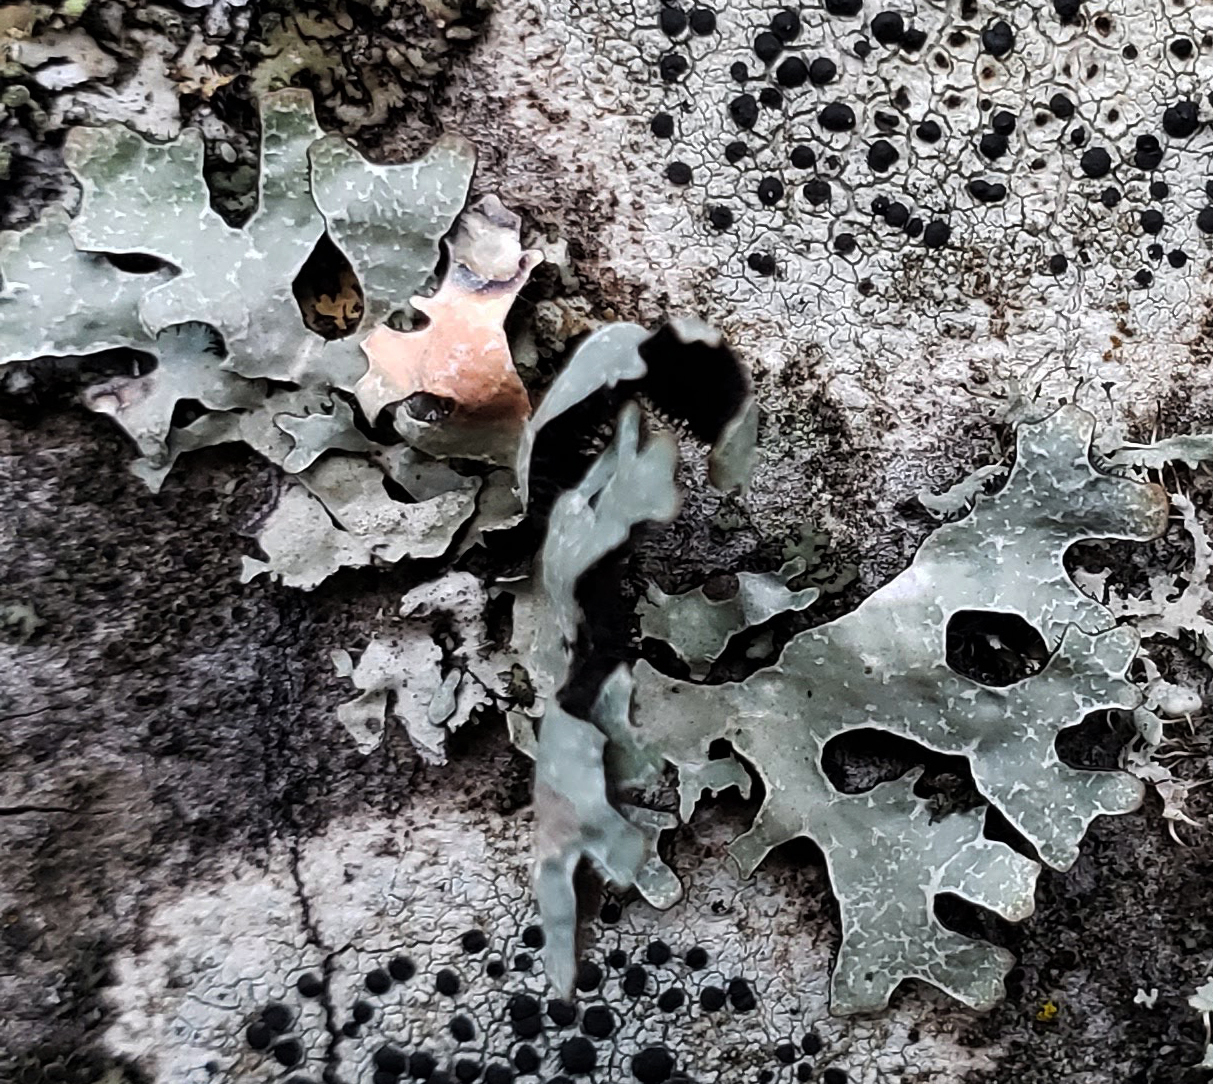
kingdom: Fungi
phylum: Ascomycota
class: Lecanoromycetes
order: Lecanorales
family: Parmeliaceae
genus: Parmelia
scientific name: Parmelia sulcata
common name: Netted shield lichen
